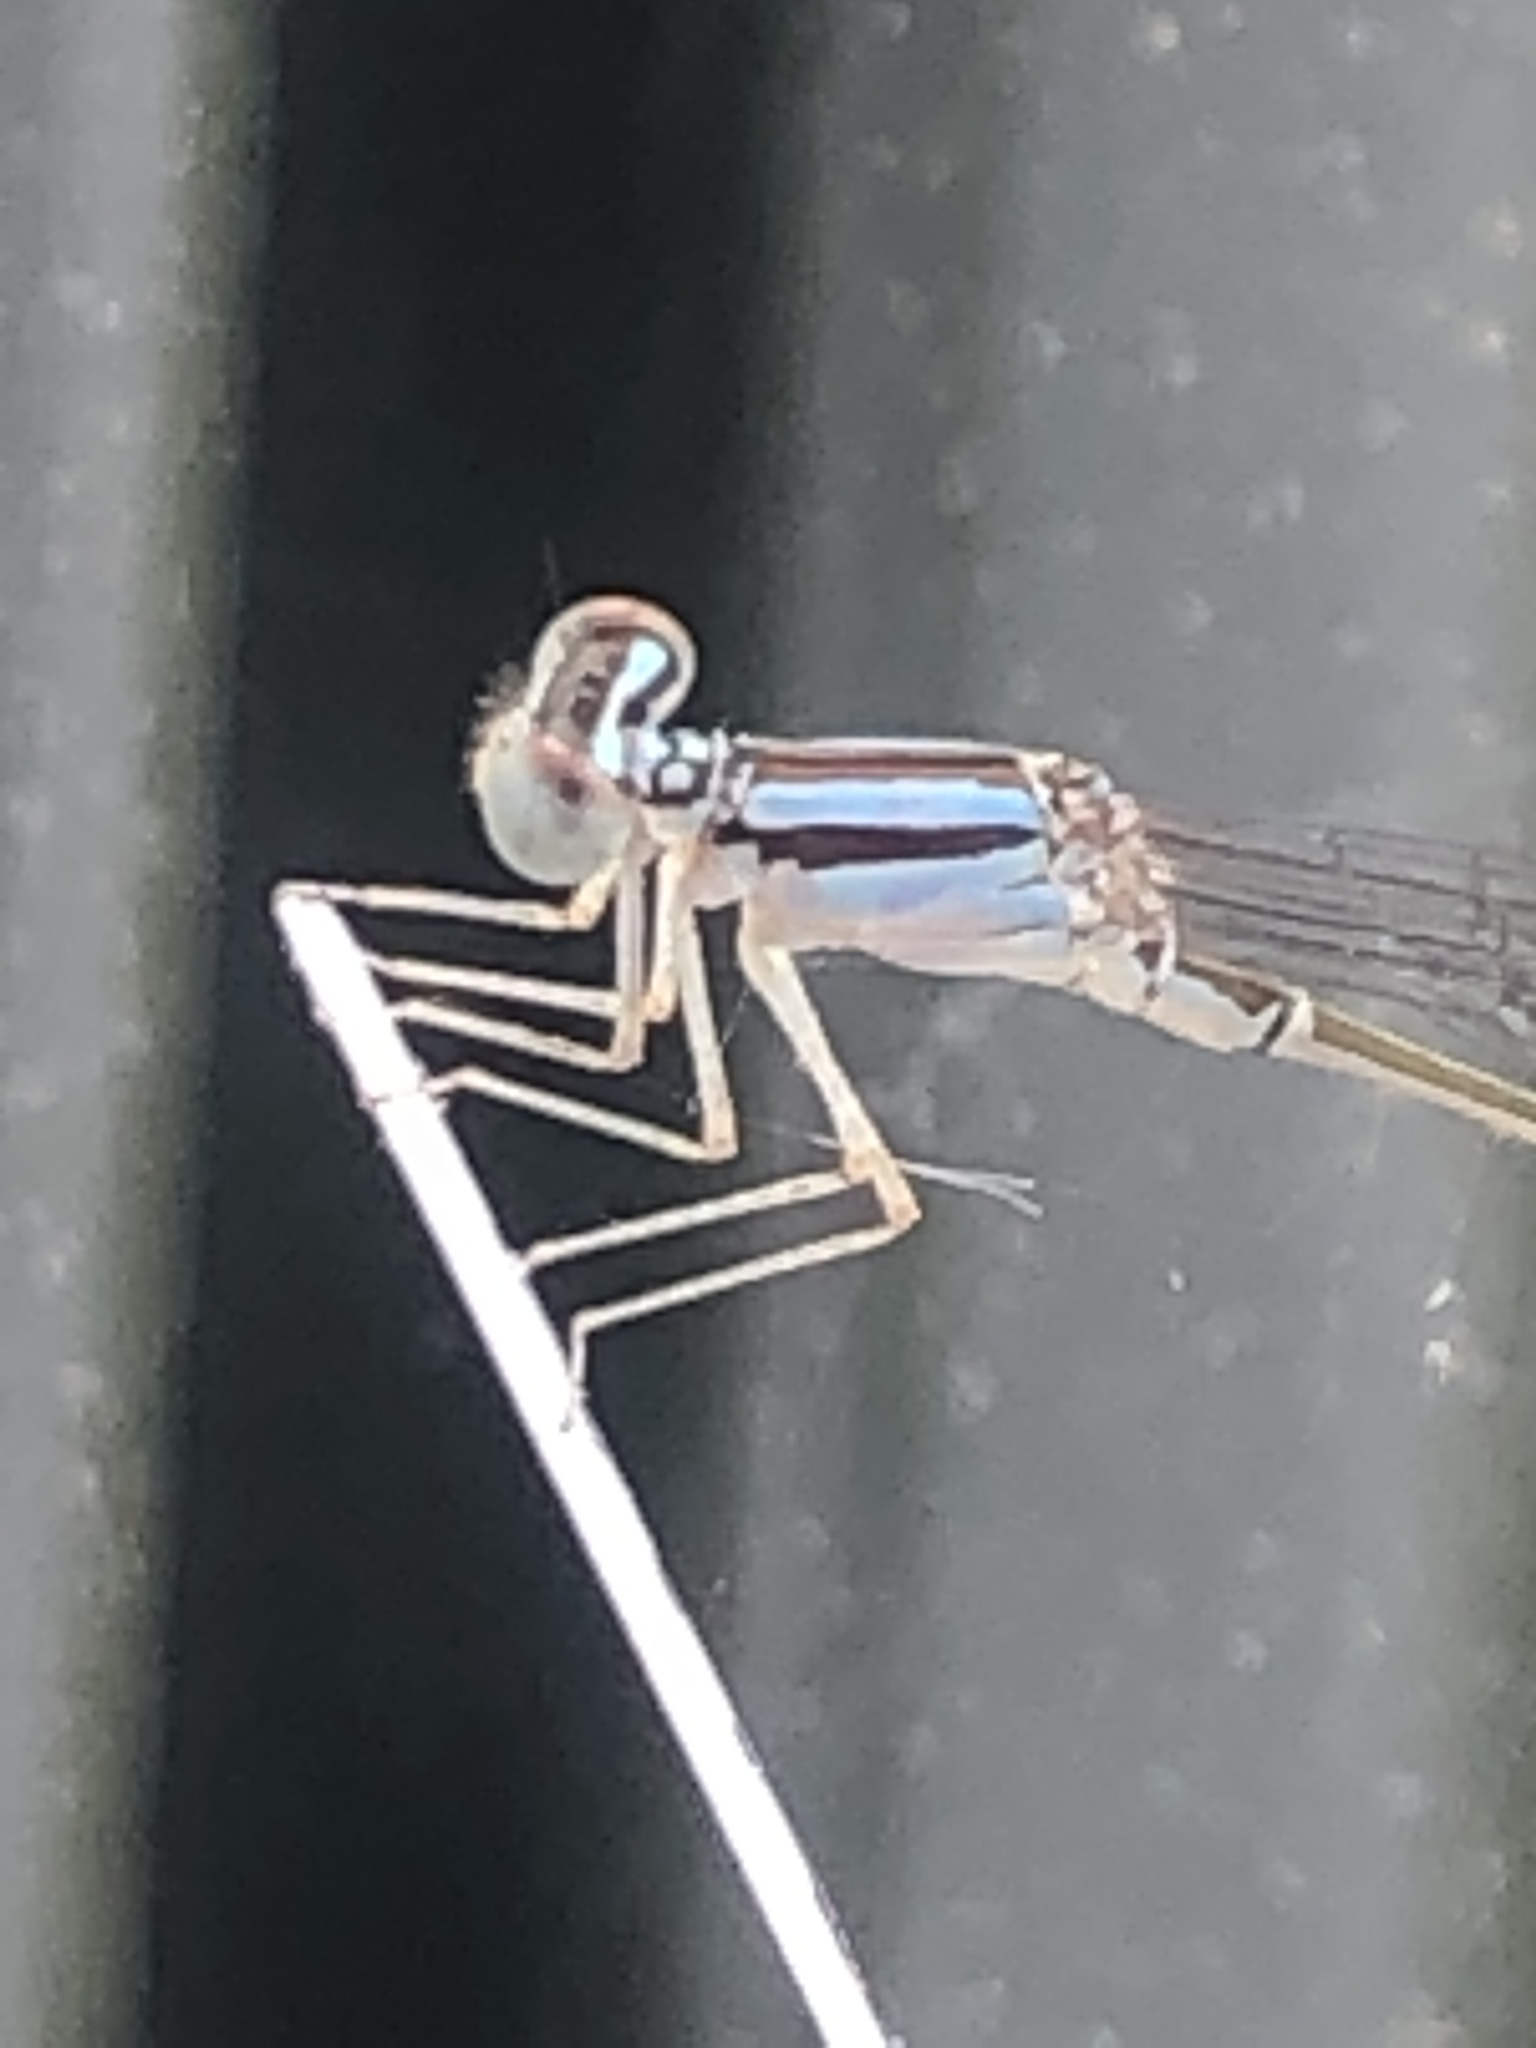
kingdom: Animalia
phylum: Arthropoda
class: Insecta
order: Odonata
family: Coenagrionidae
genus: Enallagma
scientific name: Enallagma signatum
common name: Orange bluet
